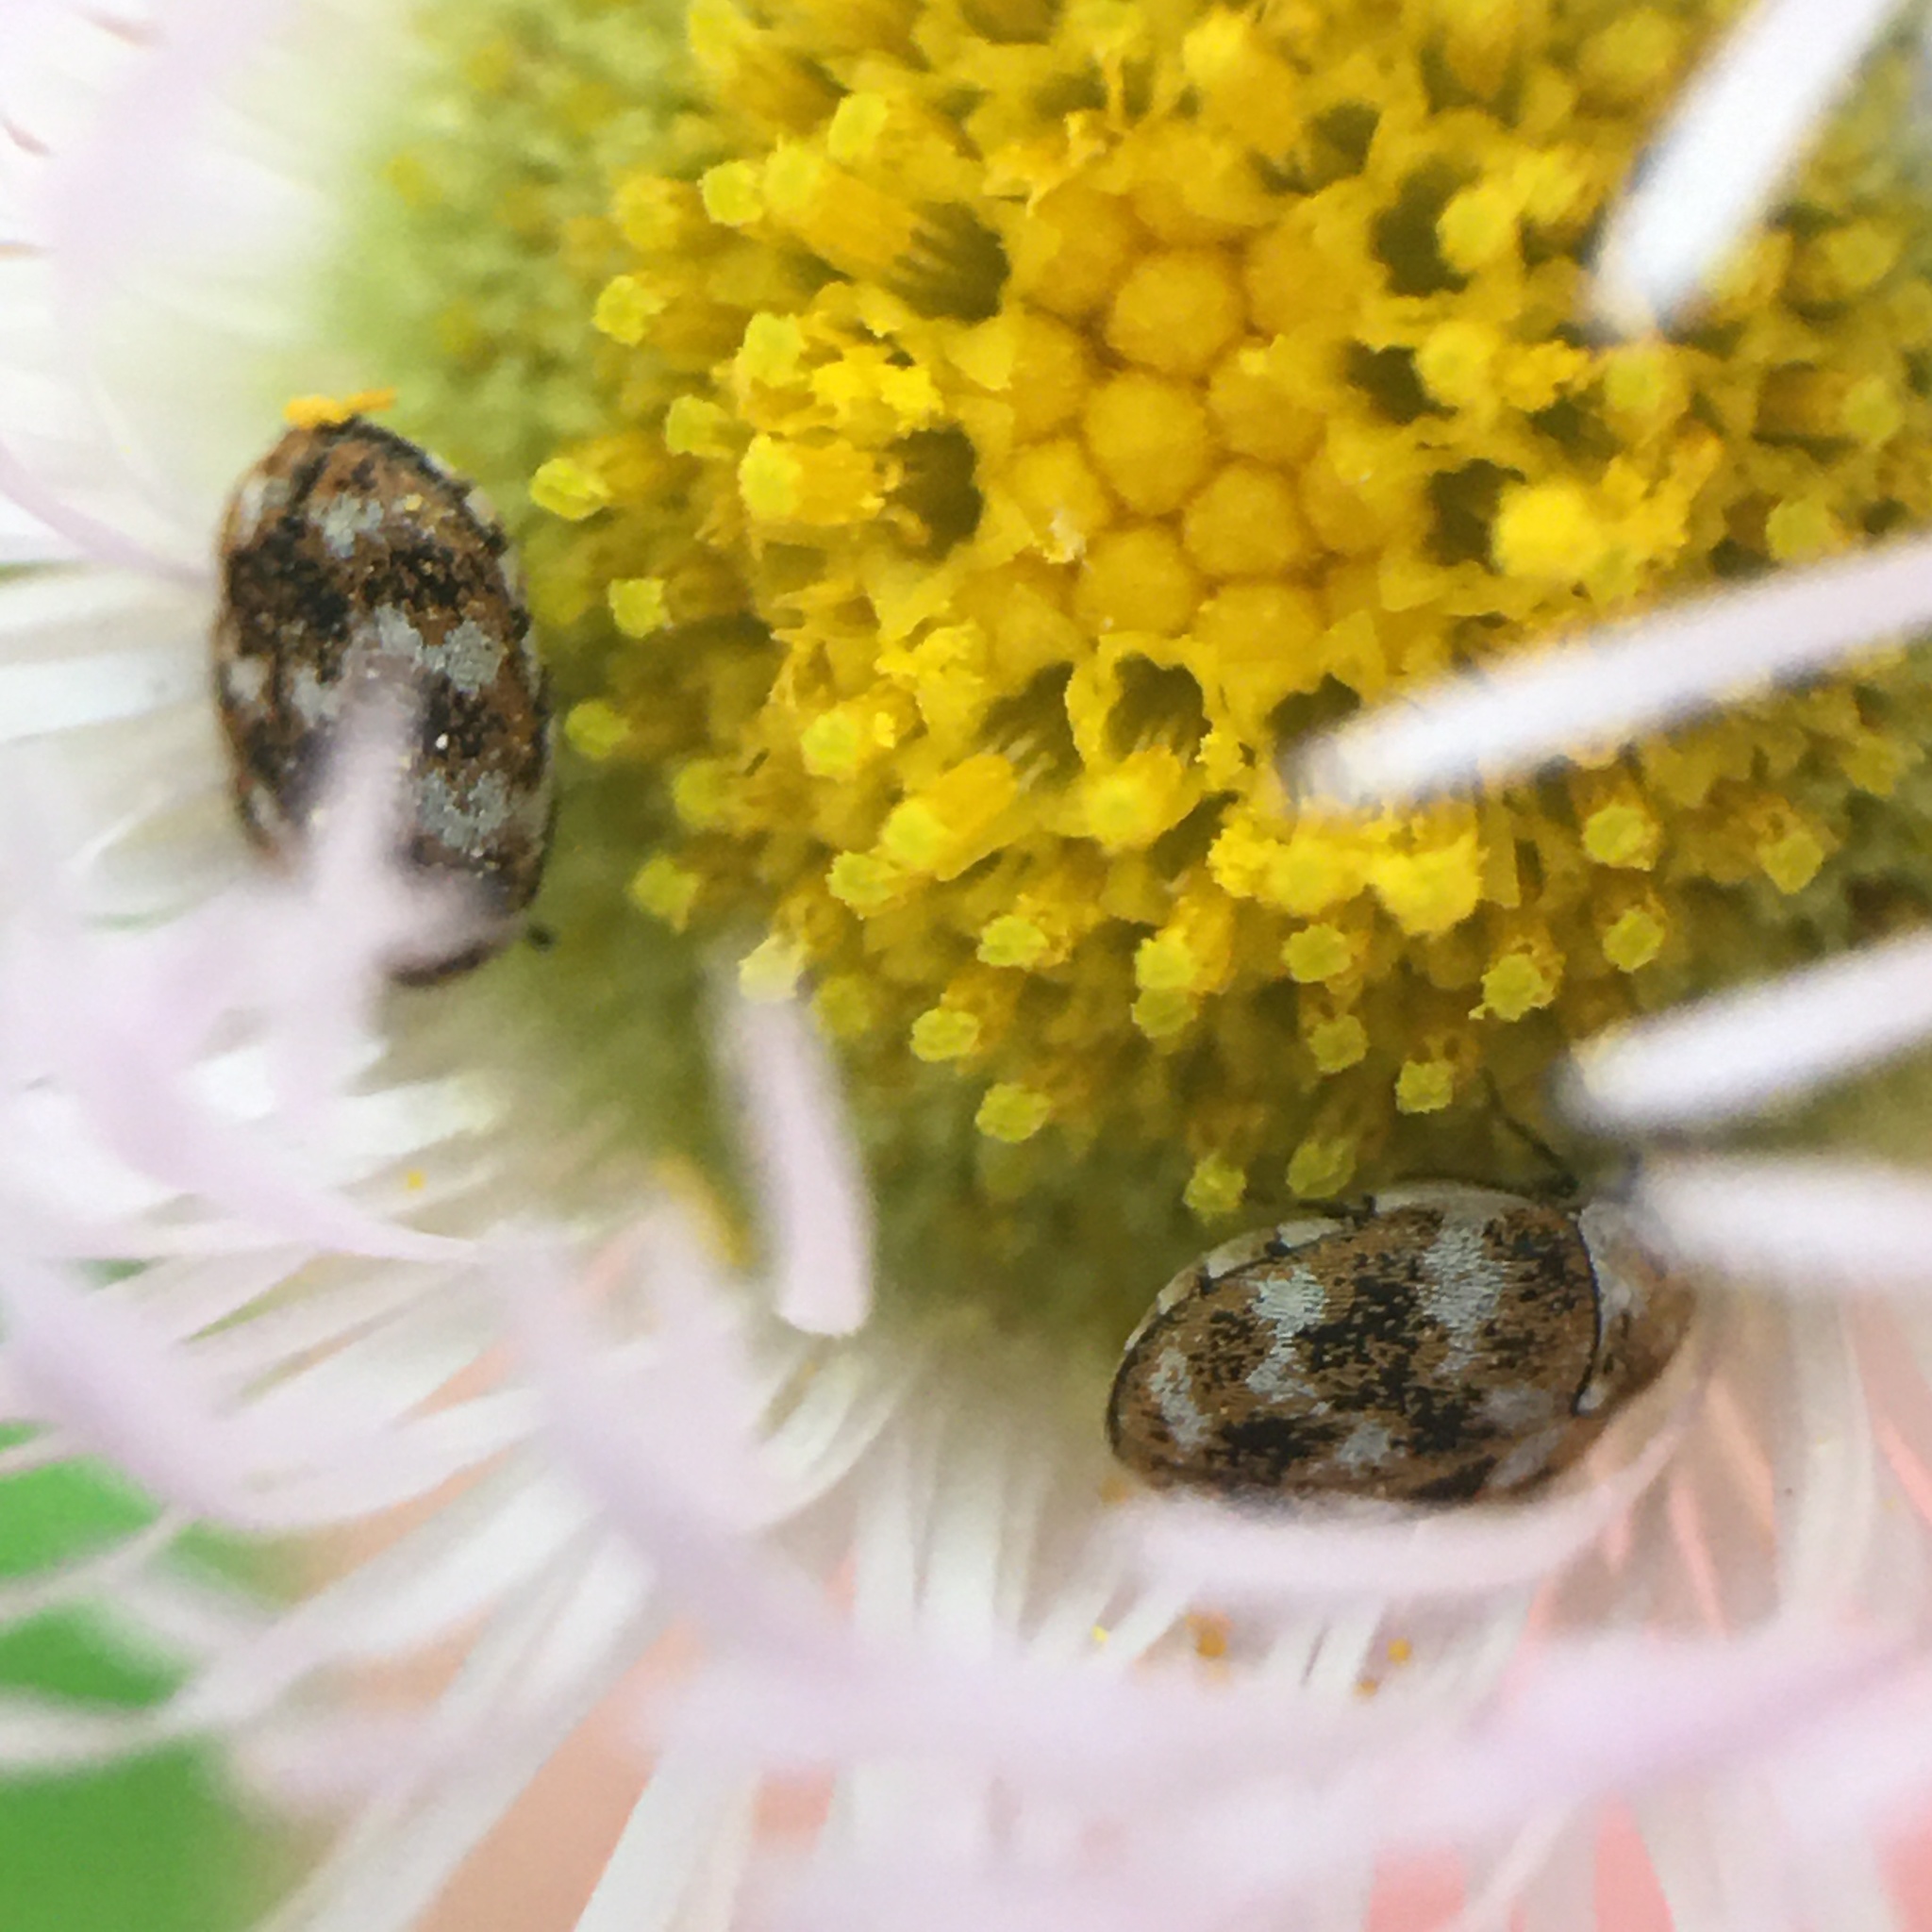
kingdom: Animalia
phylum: Arthropoda
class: Insecta
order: Coleoptera
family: Dermestidae
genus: Anthrenus
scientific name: Anthrenus verbasci
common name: Varied carpet beetle
